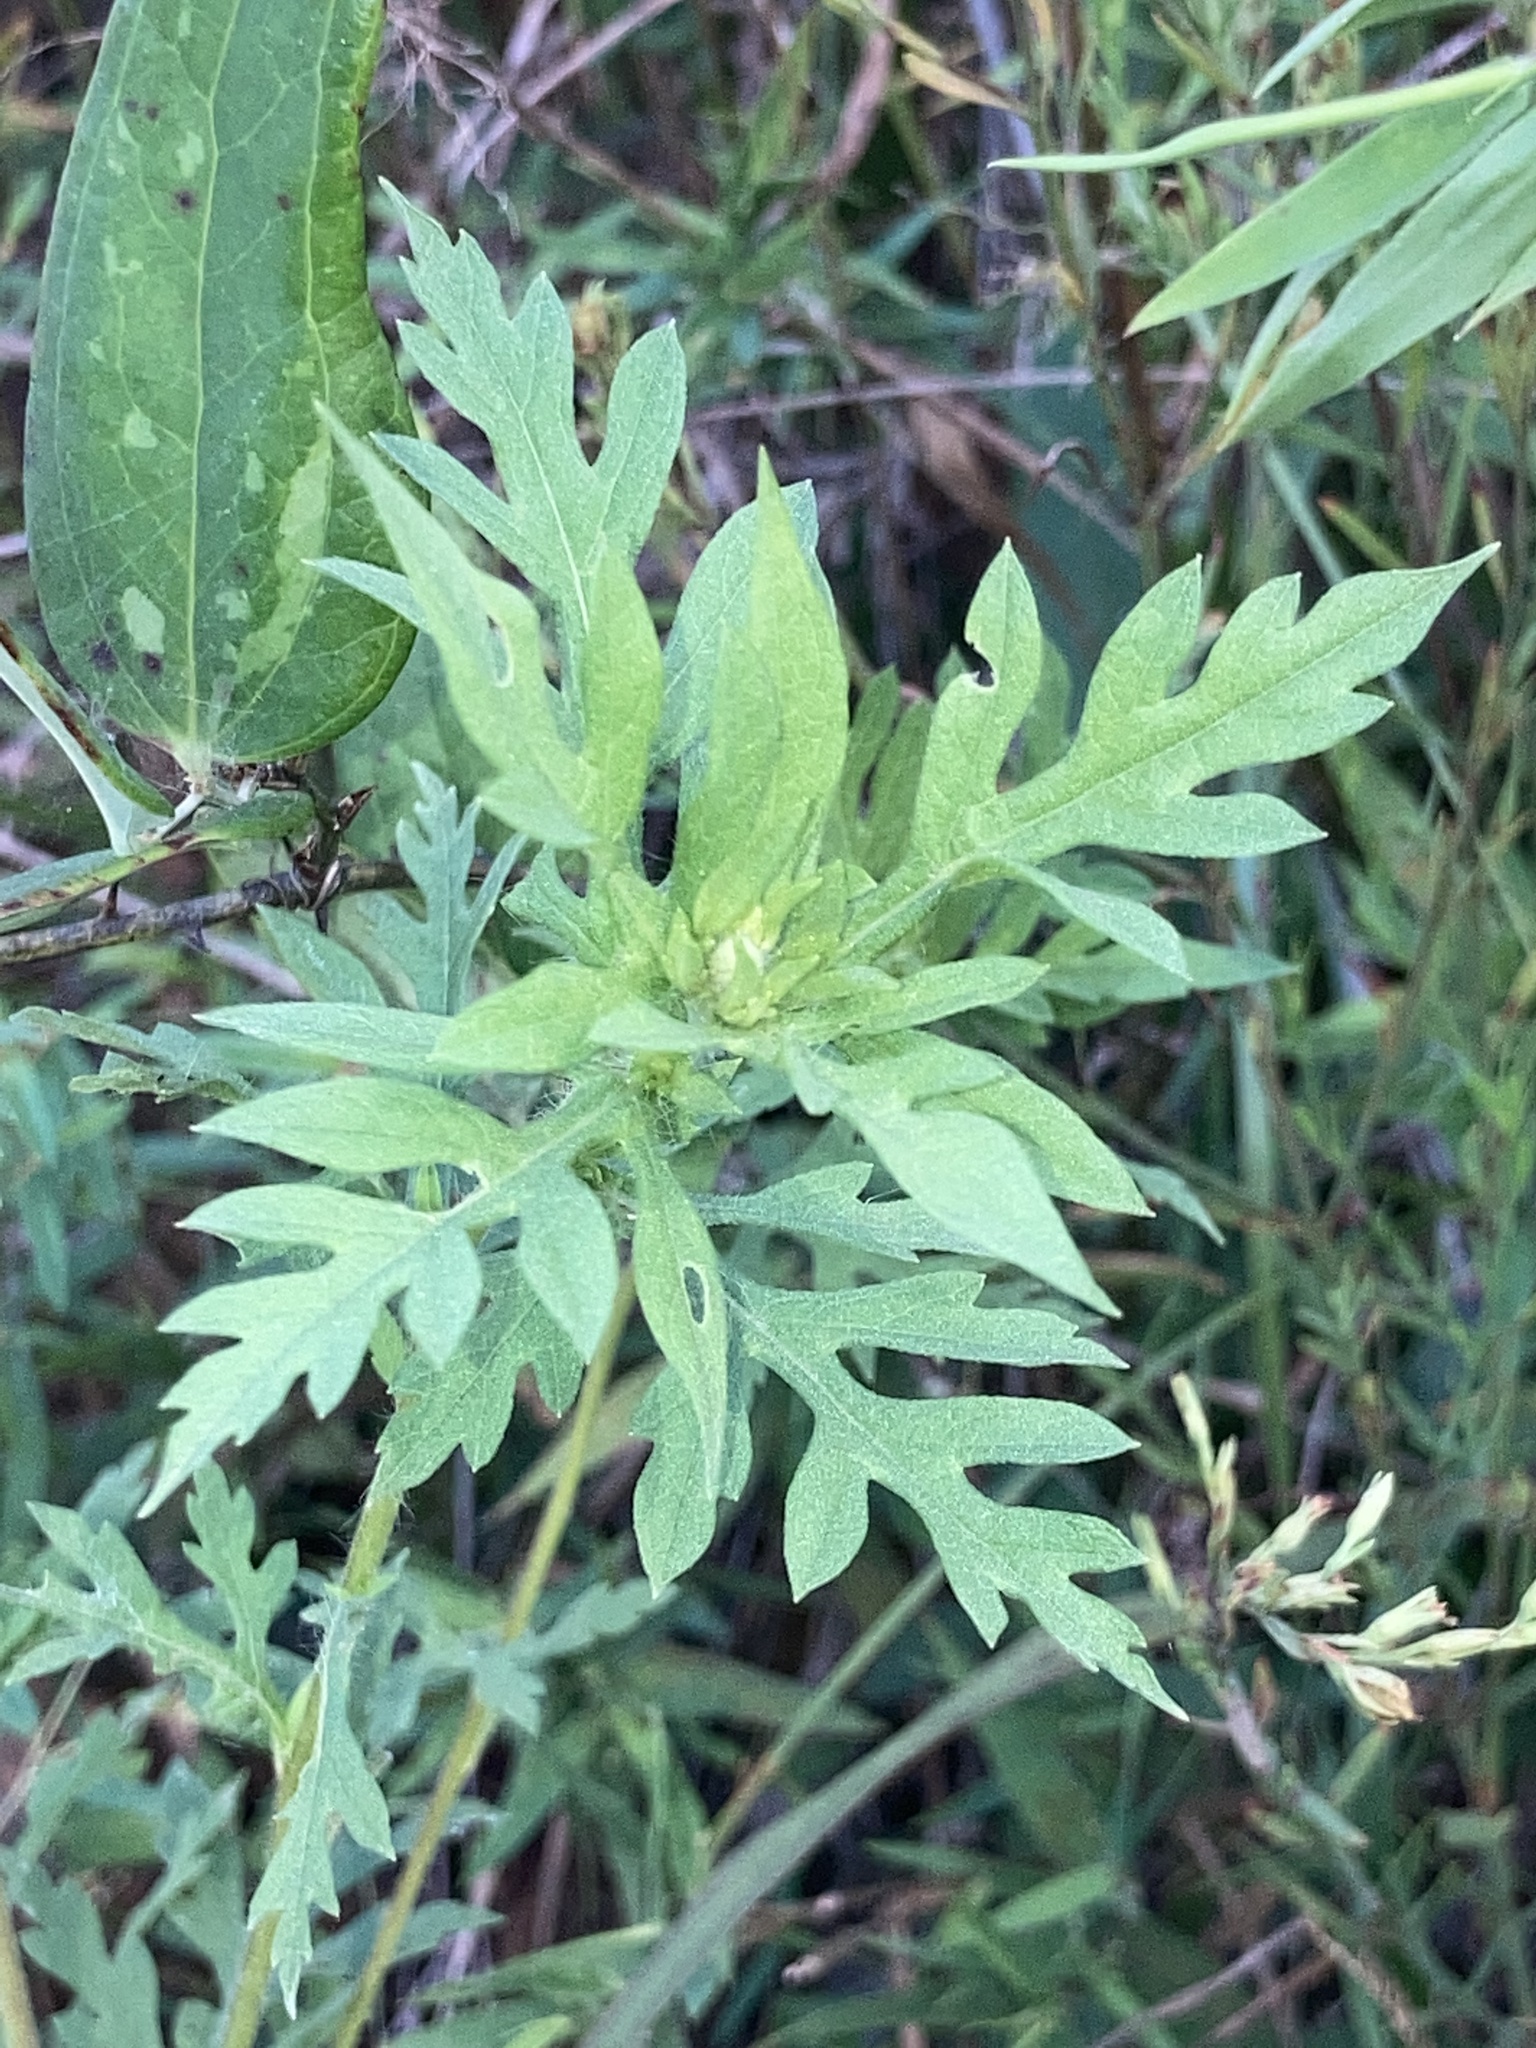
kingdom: Plantae
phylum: Tracheophyta
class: Magnoliopsida
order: Asterales
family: Asteraceae
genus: Ambrosia
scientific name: Ambrosia artemisiifolia
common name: Annual ragweed
